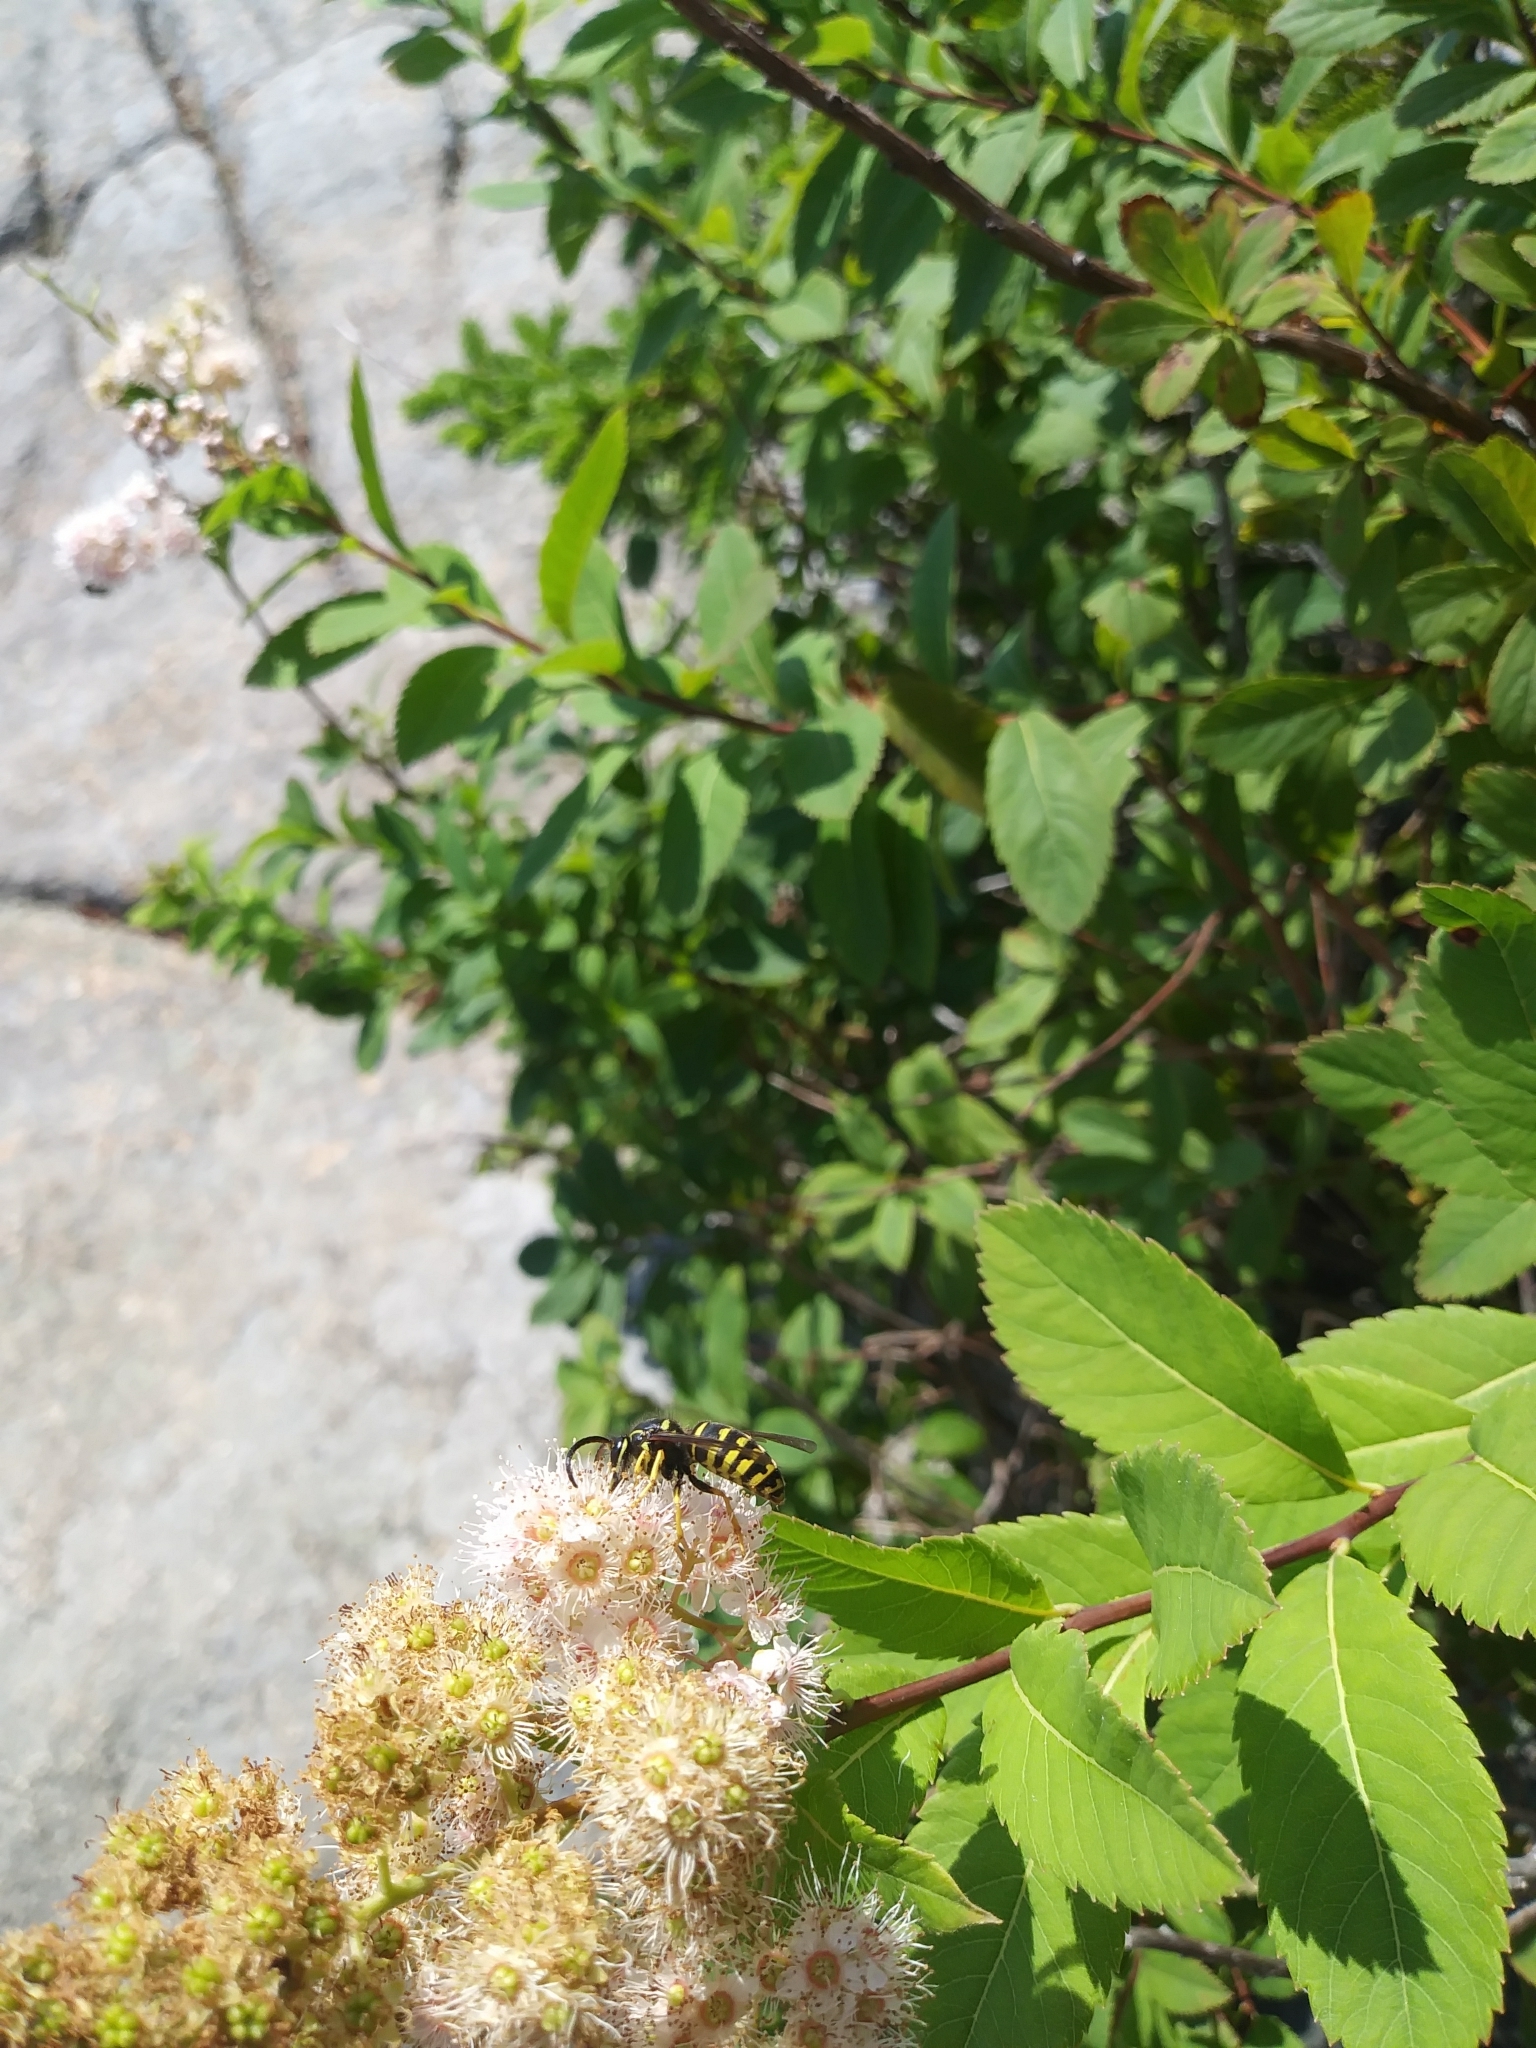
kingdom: Animalia
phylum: Arthropoda
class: Insecta
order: Hymenoptera
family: Vespidae
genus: Dolichovespula
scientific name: Dolichovespula arenaria
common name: Aerial yellowjacket
